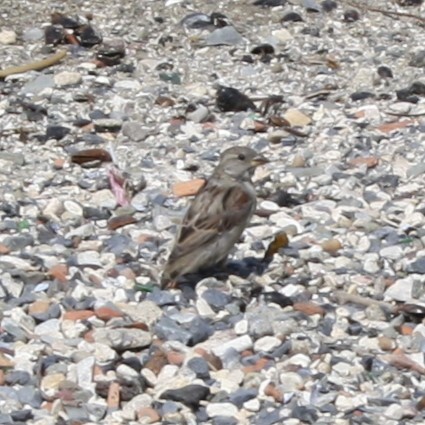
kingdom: Animalia
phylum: Chordata
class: Aves
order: Passeriformes
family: Passeridae
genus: Passer
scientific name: Passer domesticus
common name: House sparrow
